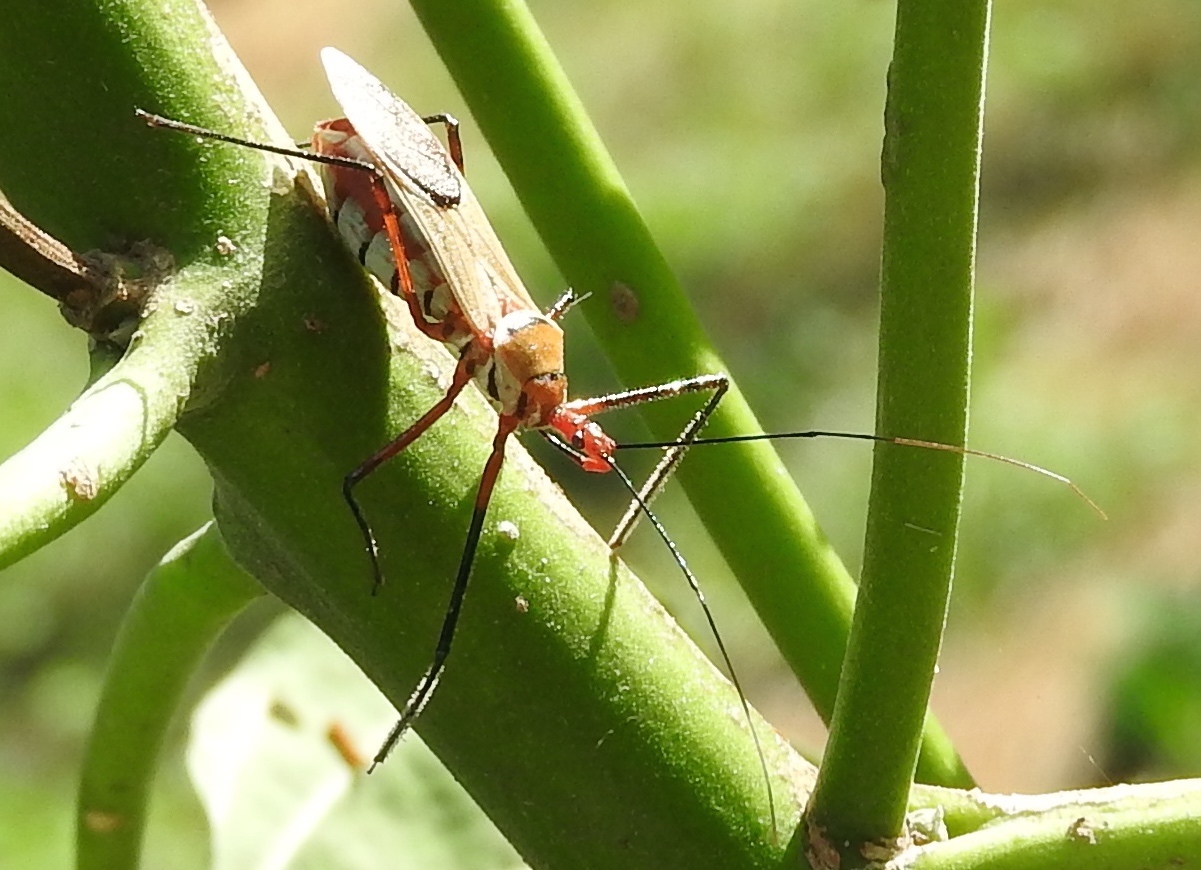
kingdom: Animalia
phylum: Arthropoda
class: Insecta
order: Hemiptera
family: Reduviidae
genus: Zelus
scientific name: Zelus grassans
